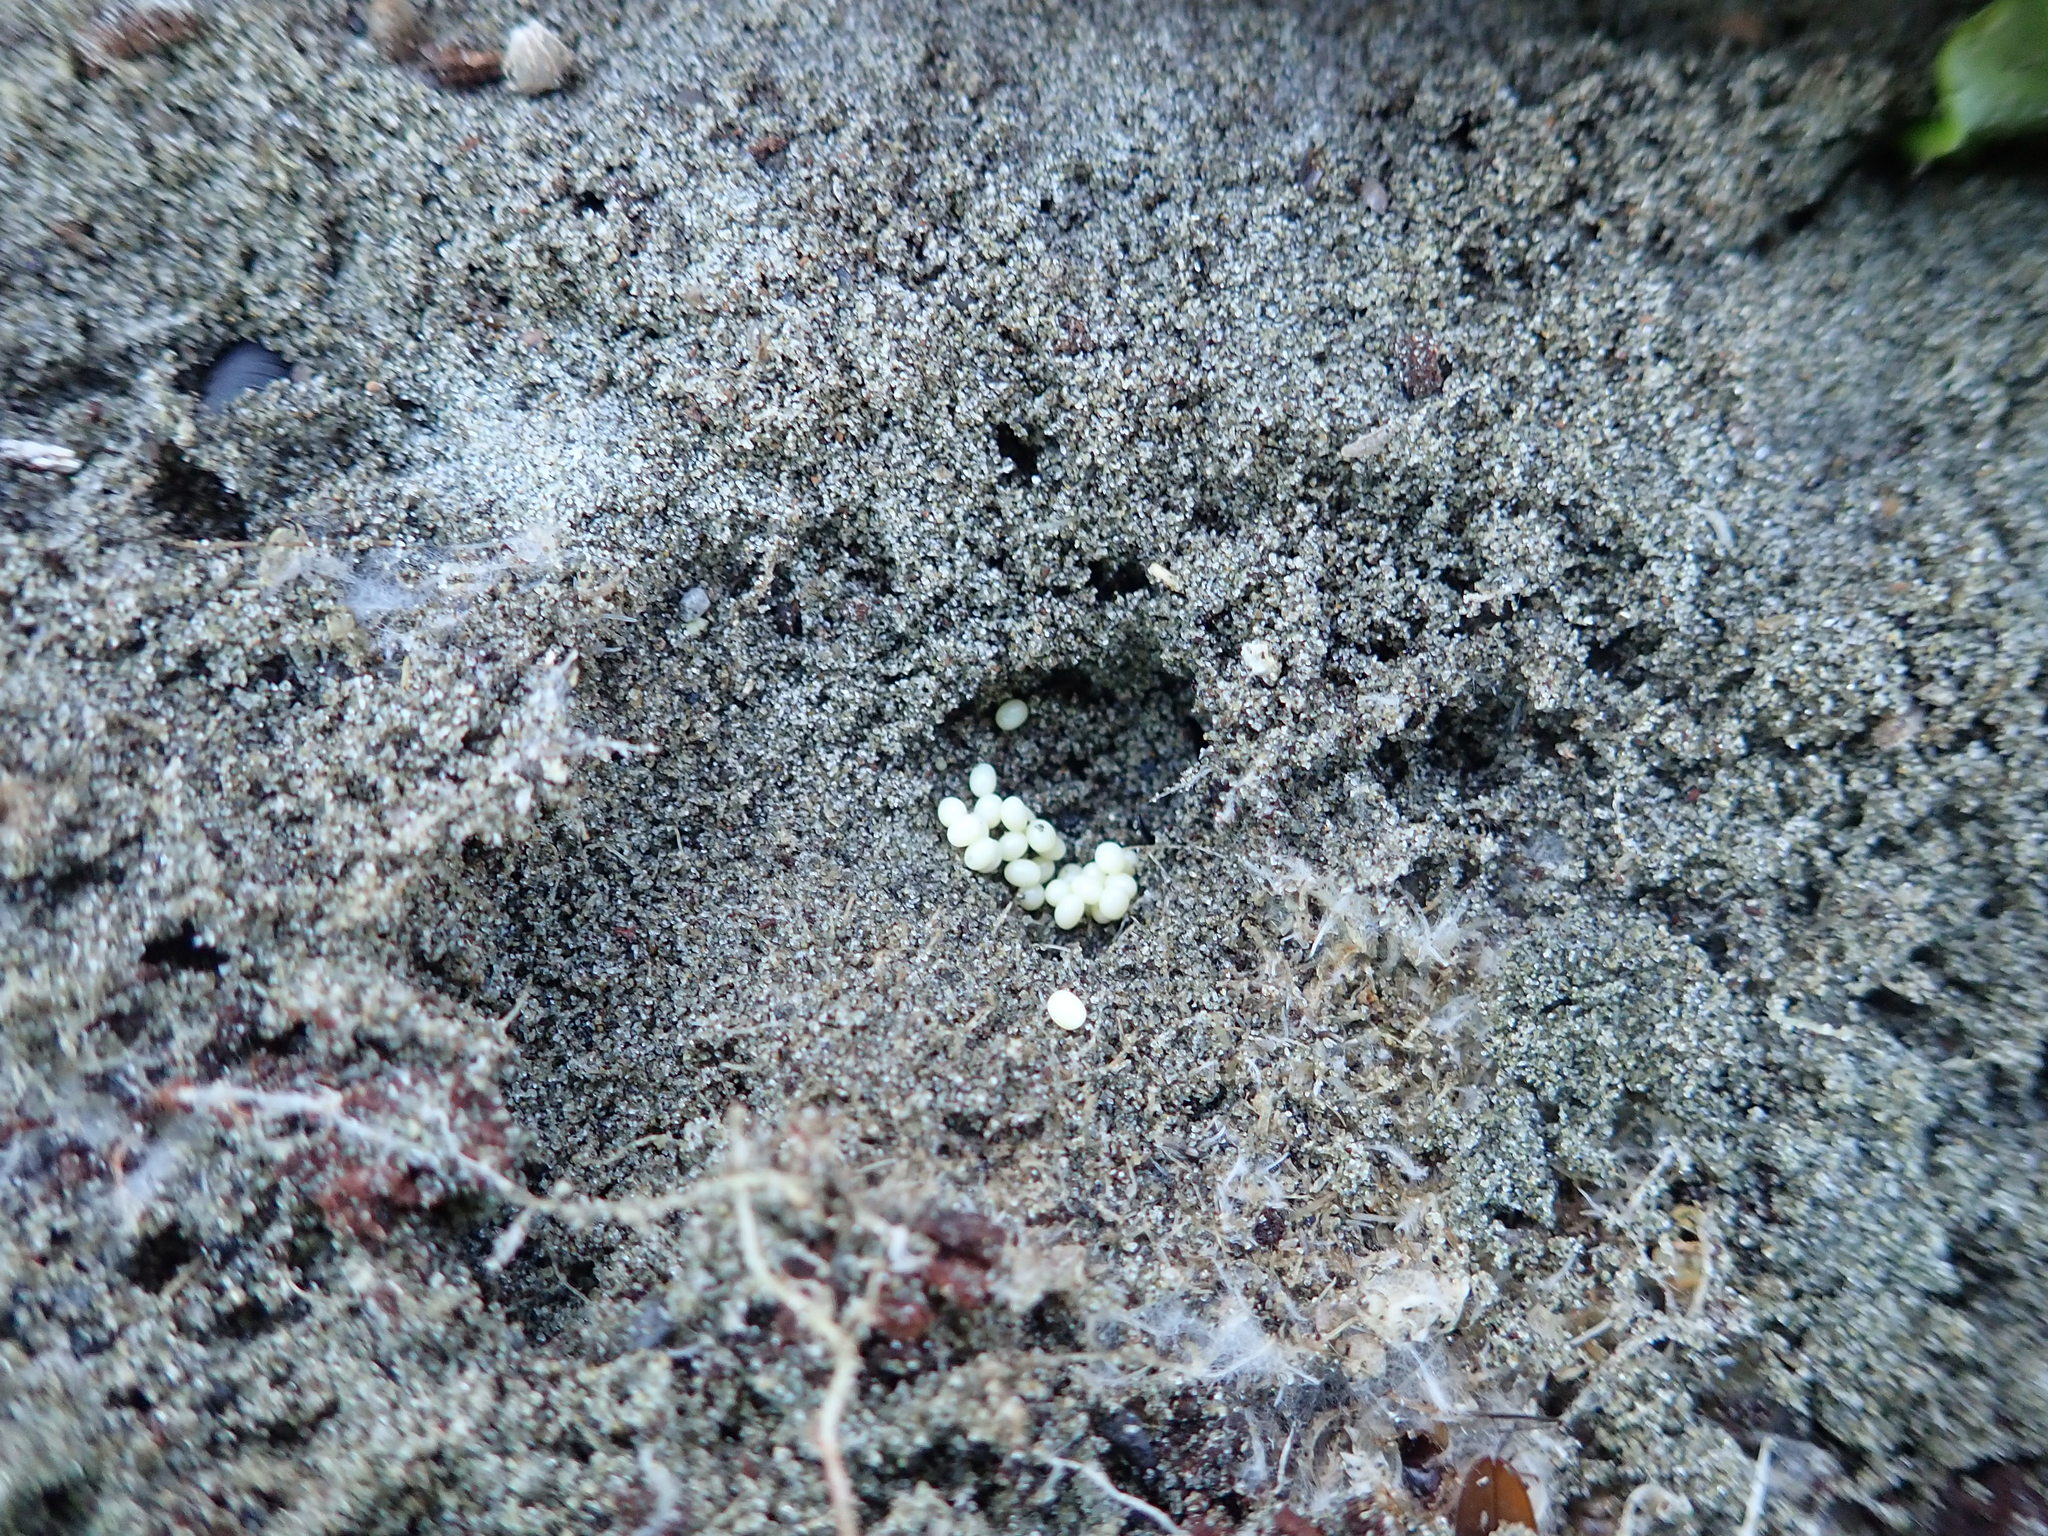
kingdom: Animalia
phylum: Arthropoda
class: Insecta
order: Dermaptera
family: Anisolabididae
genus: Anisolabis
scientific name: Anisolabis littorea
